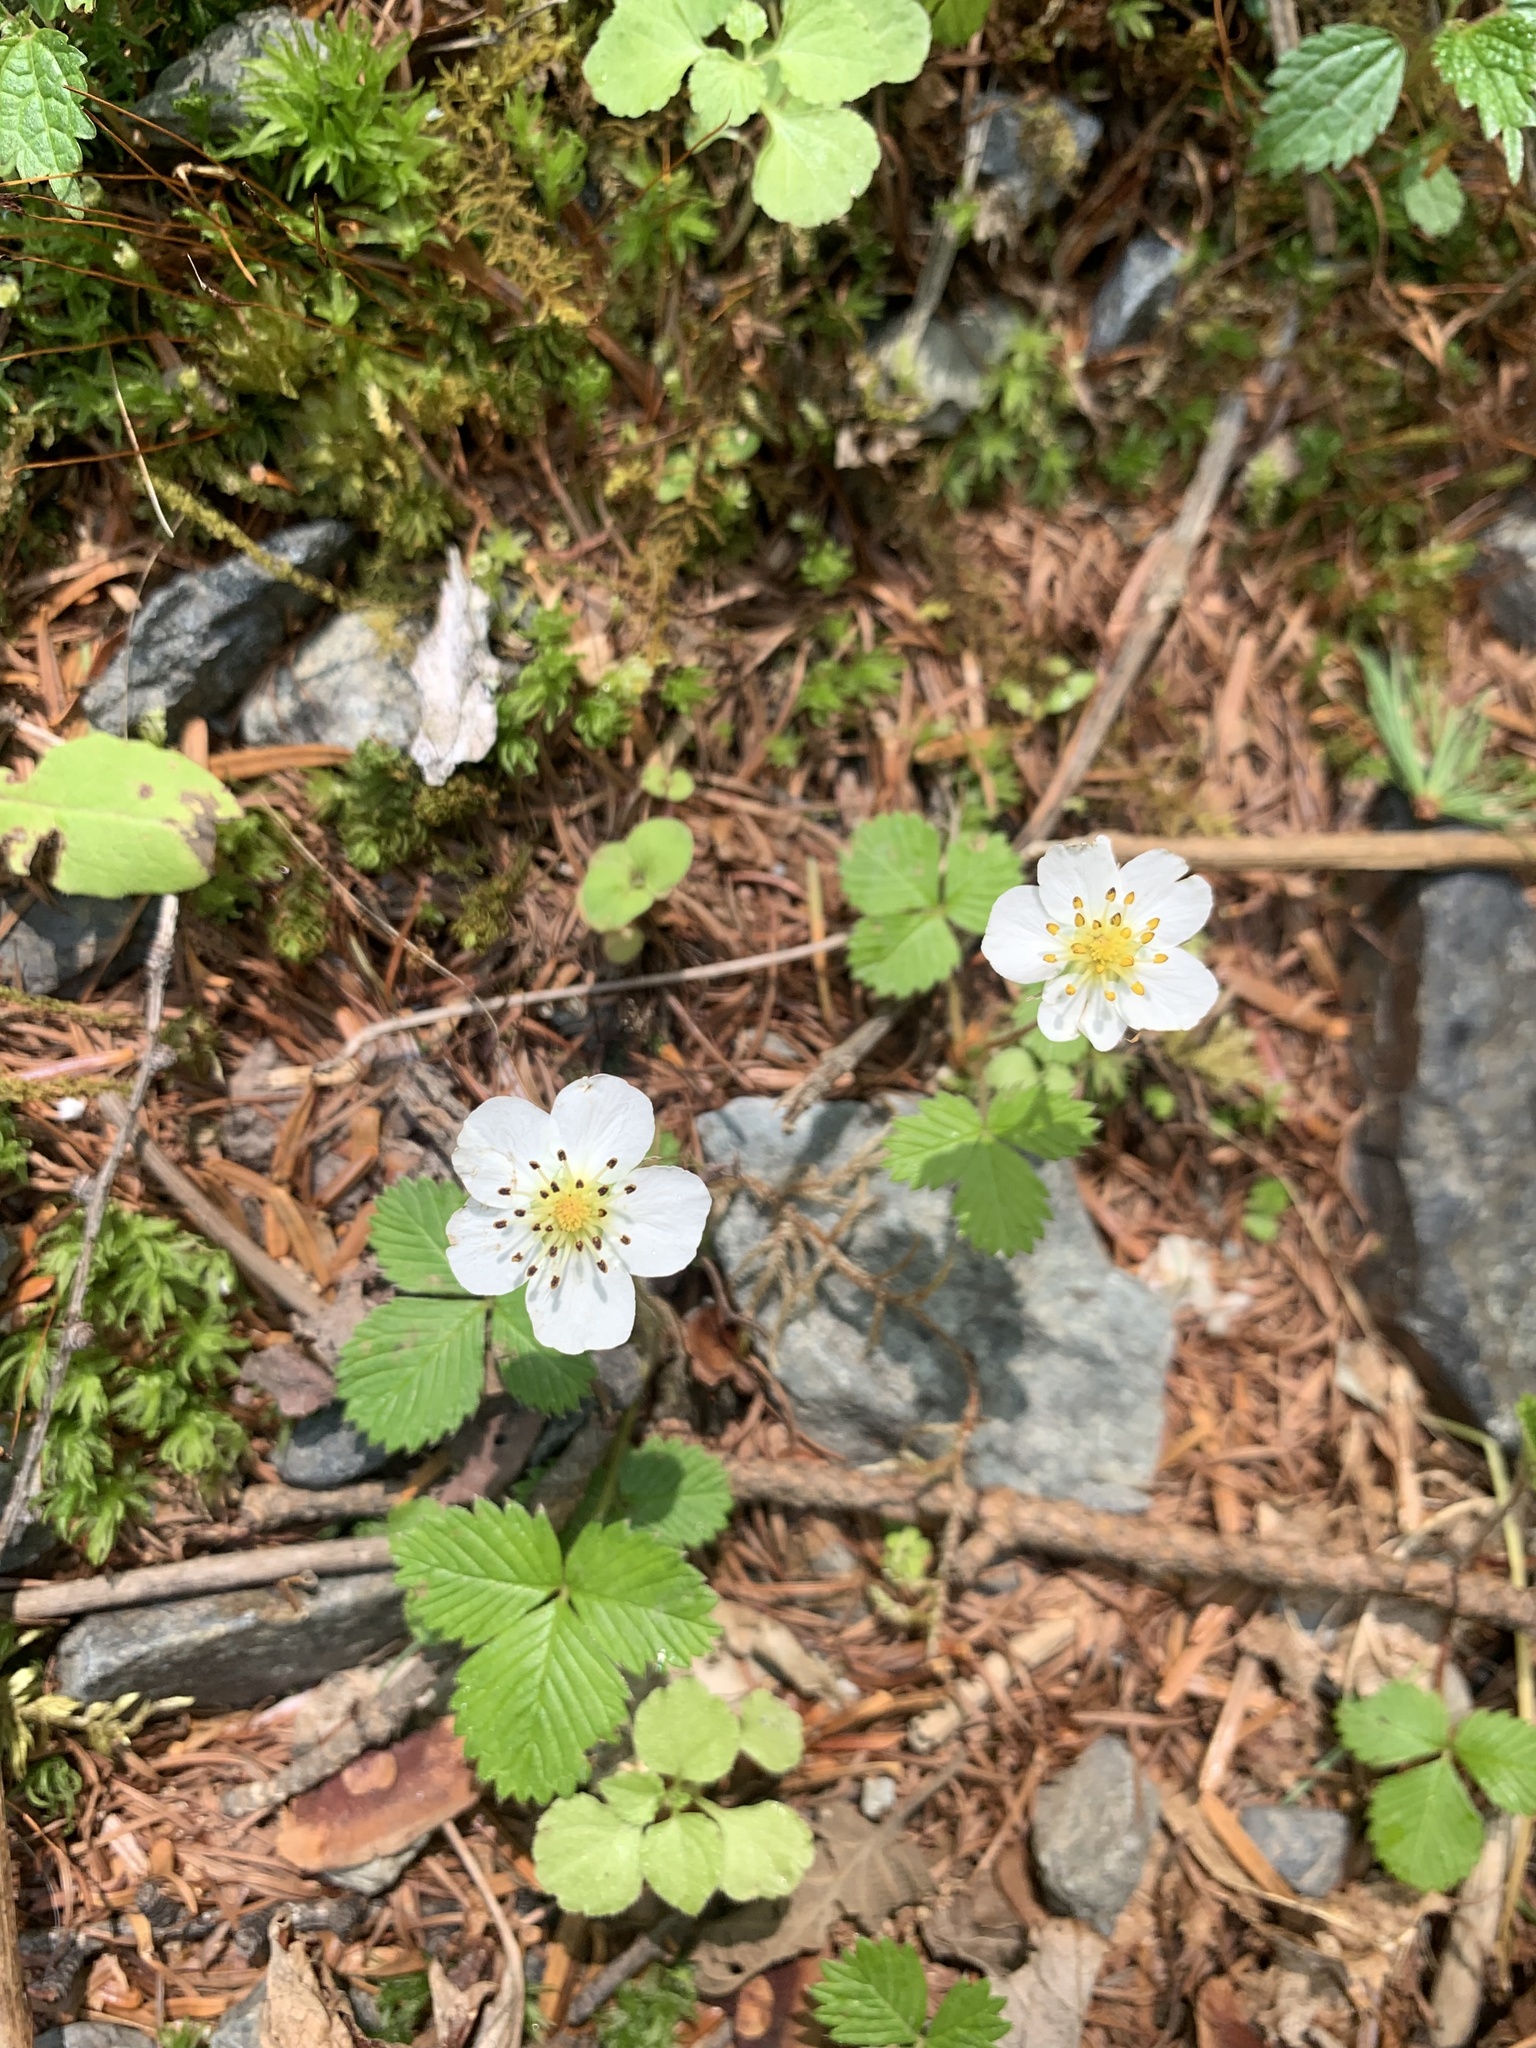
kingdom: Plantae
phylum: Tracheophyta
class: Magnoliopsida
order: Rosales
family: Rosaceae
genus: Fragaria
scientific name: Fragaria nipponica
